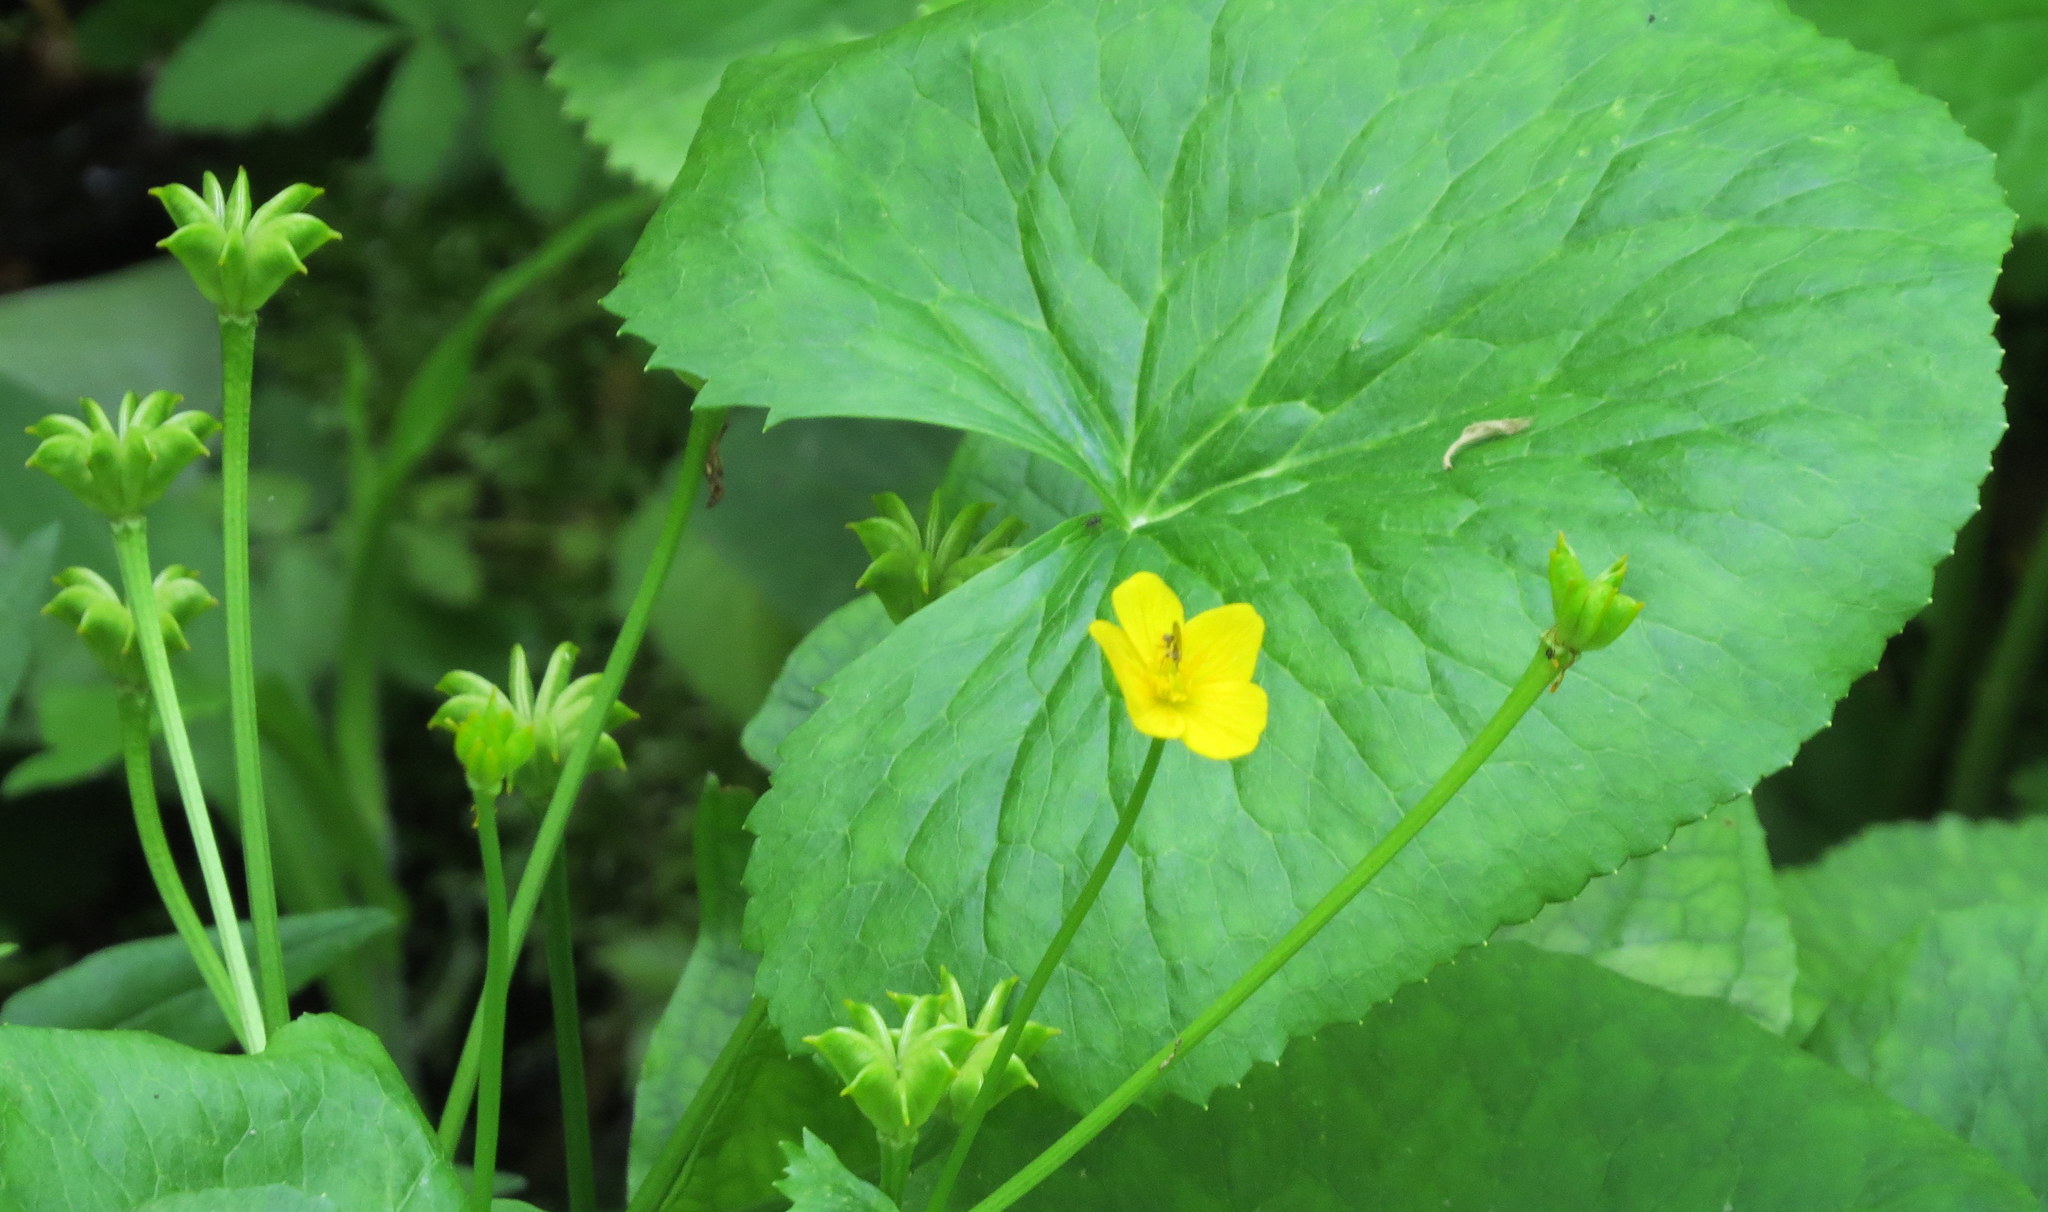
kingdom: Plantae
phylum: Tracheophyta
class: Magnoliopsida
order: Ranunculales
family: Ranunculaceae
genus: Caltha
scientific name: Caltha palustris
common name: Marsh marigold
